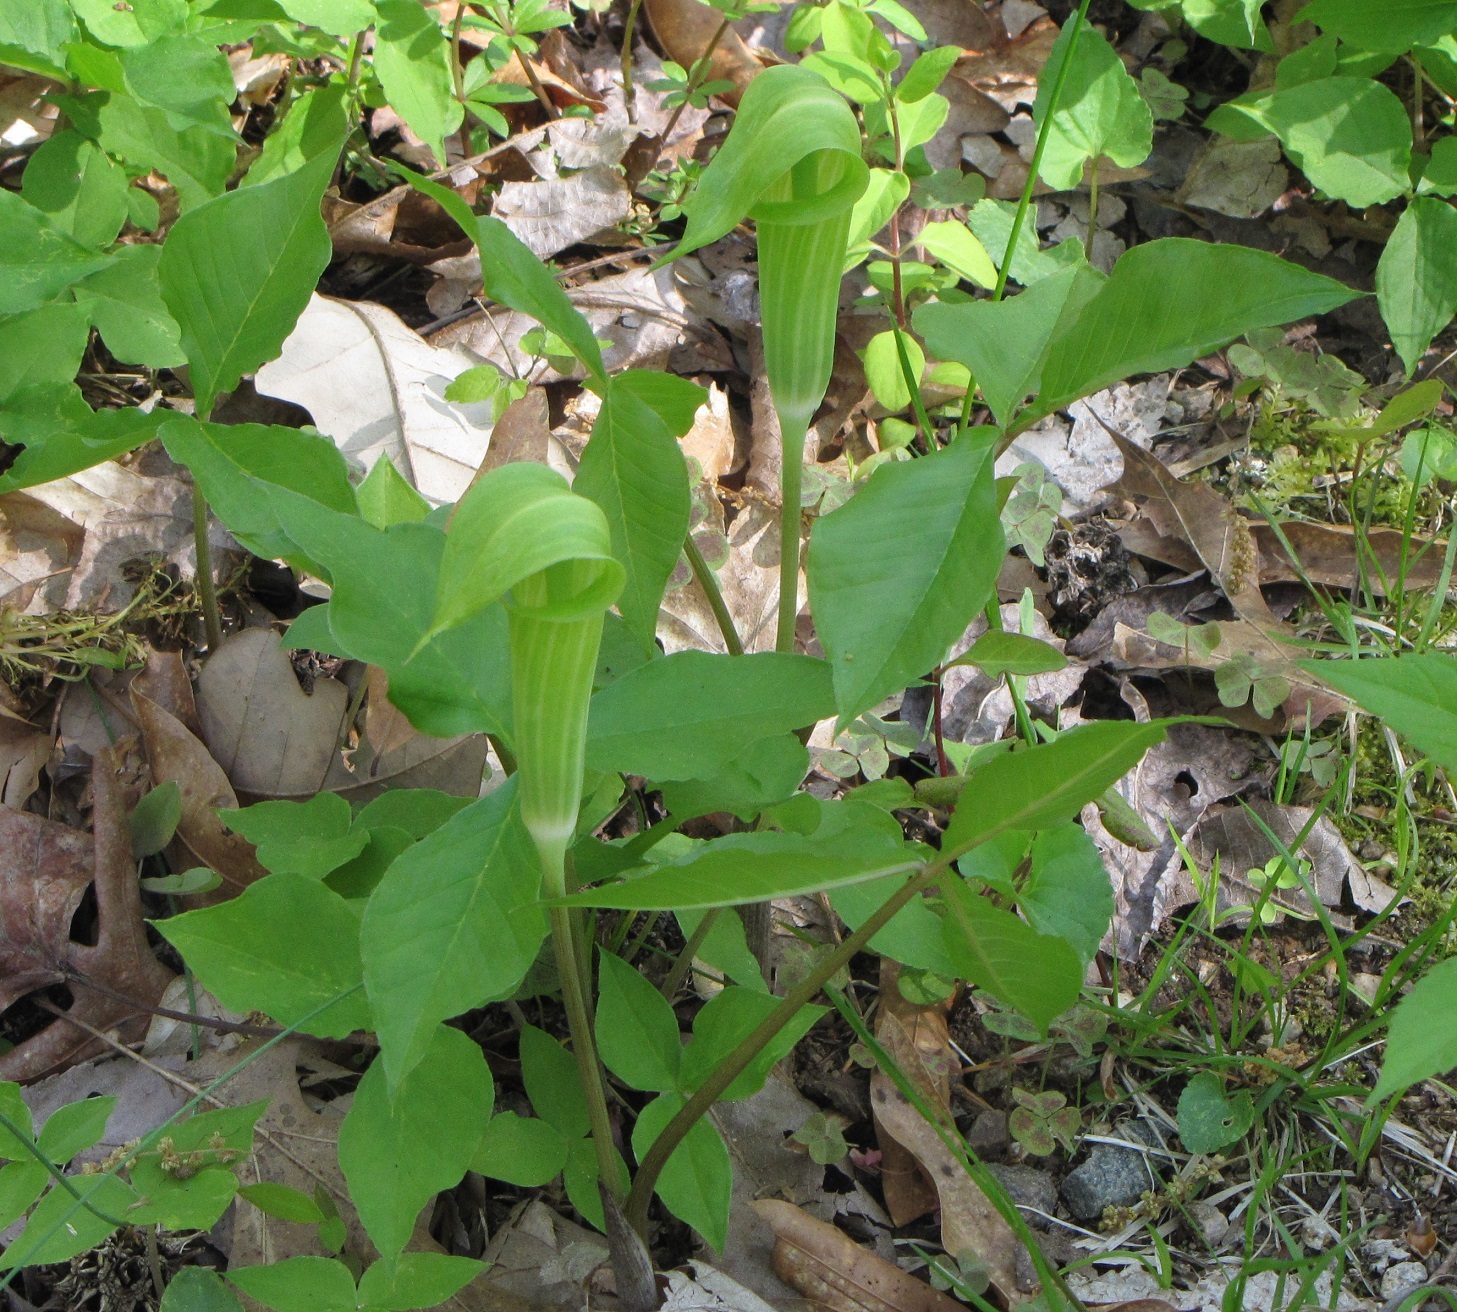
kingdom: Plantae
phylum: Tracheophyta
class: Liliopsida
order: Alismatales
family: Araceae
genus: Arisaema
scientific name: Arisaema triphyllum
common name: Jack-in-the-pulpit
